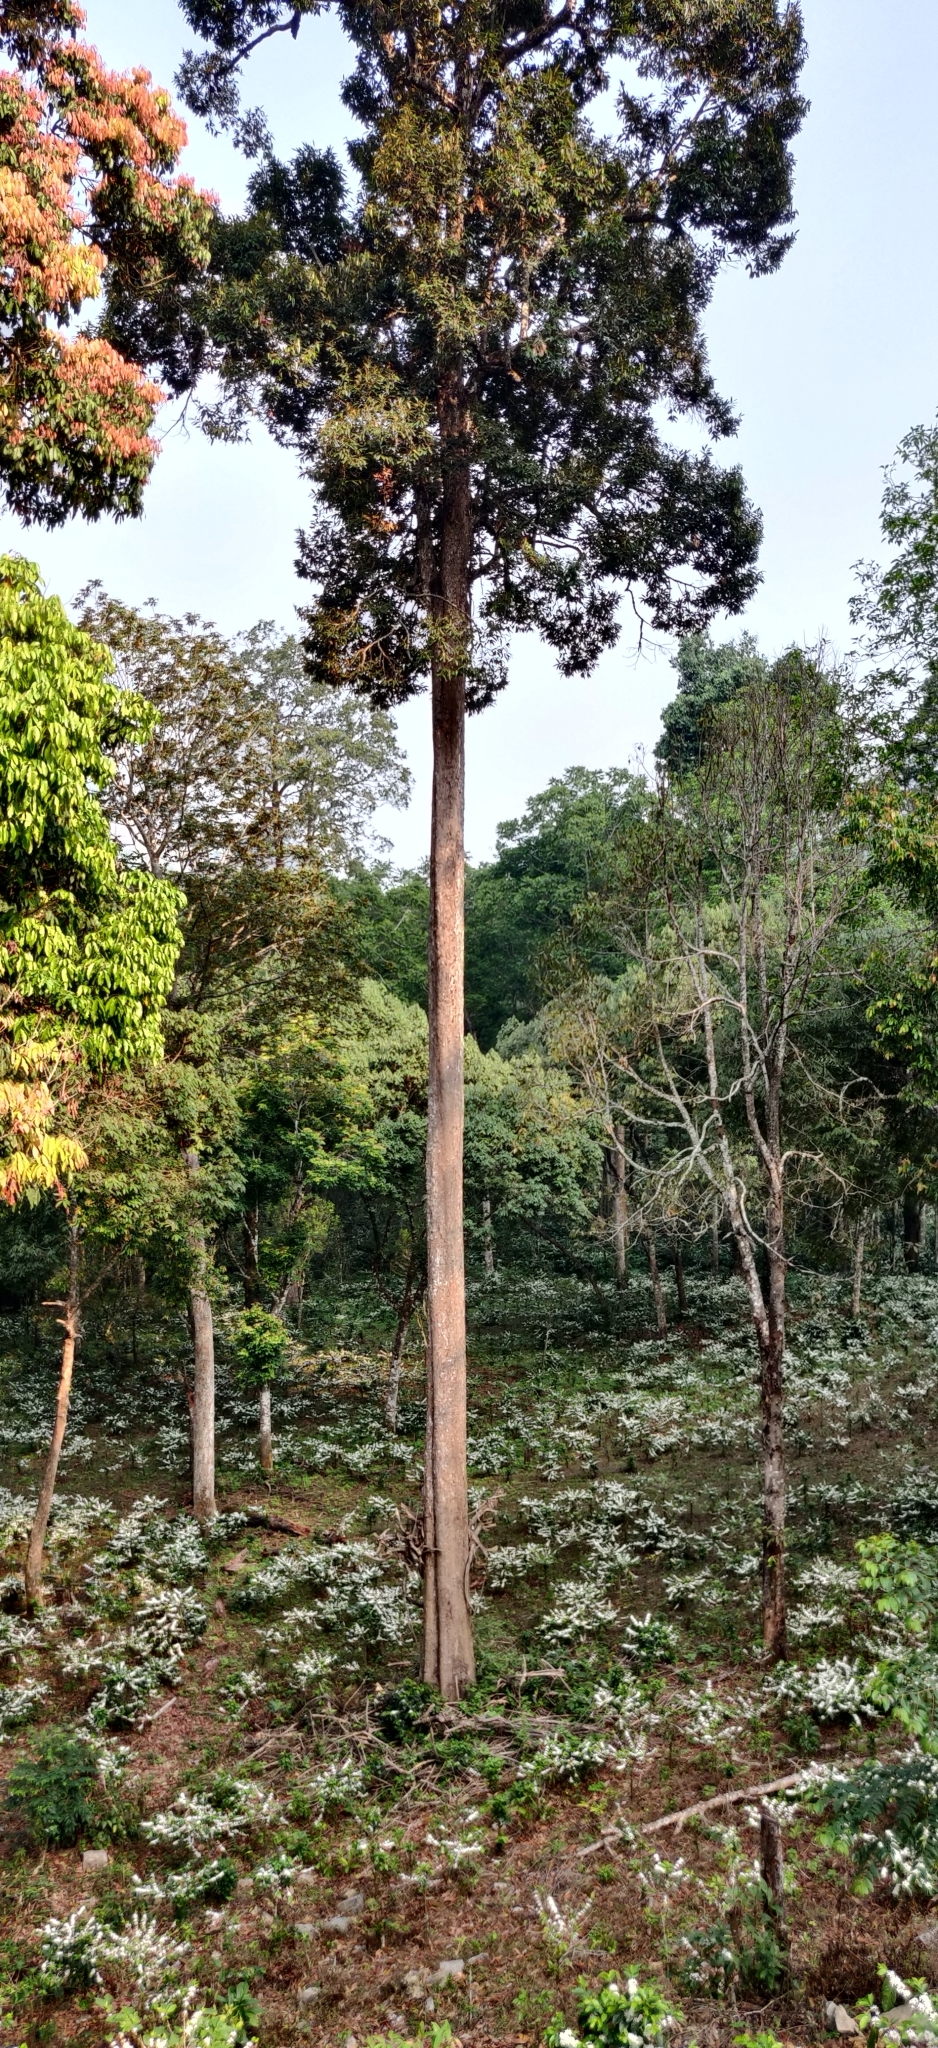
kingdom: Plantae
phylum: Tracheophyta
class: Magnoliopsida
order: Malvales
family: Malvaceae
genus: Cullenia
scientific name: Cullenia exarillata
